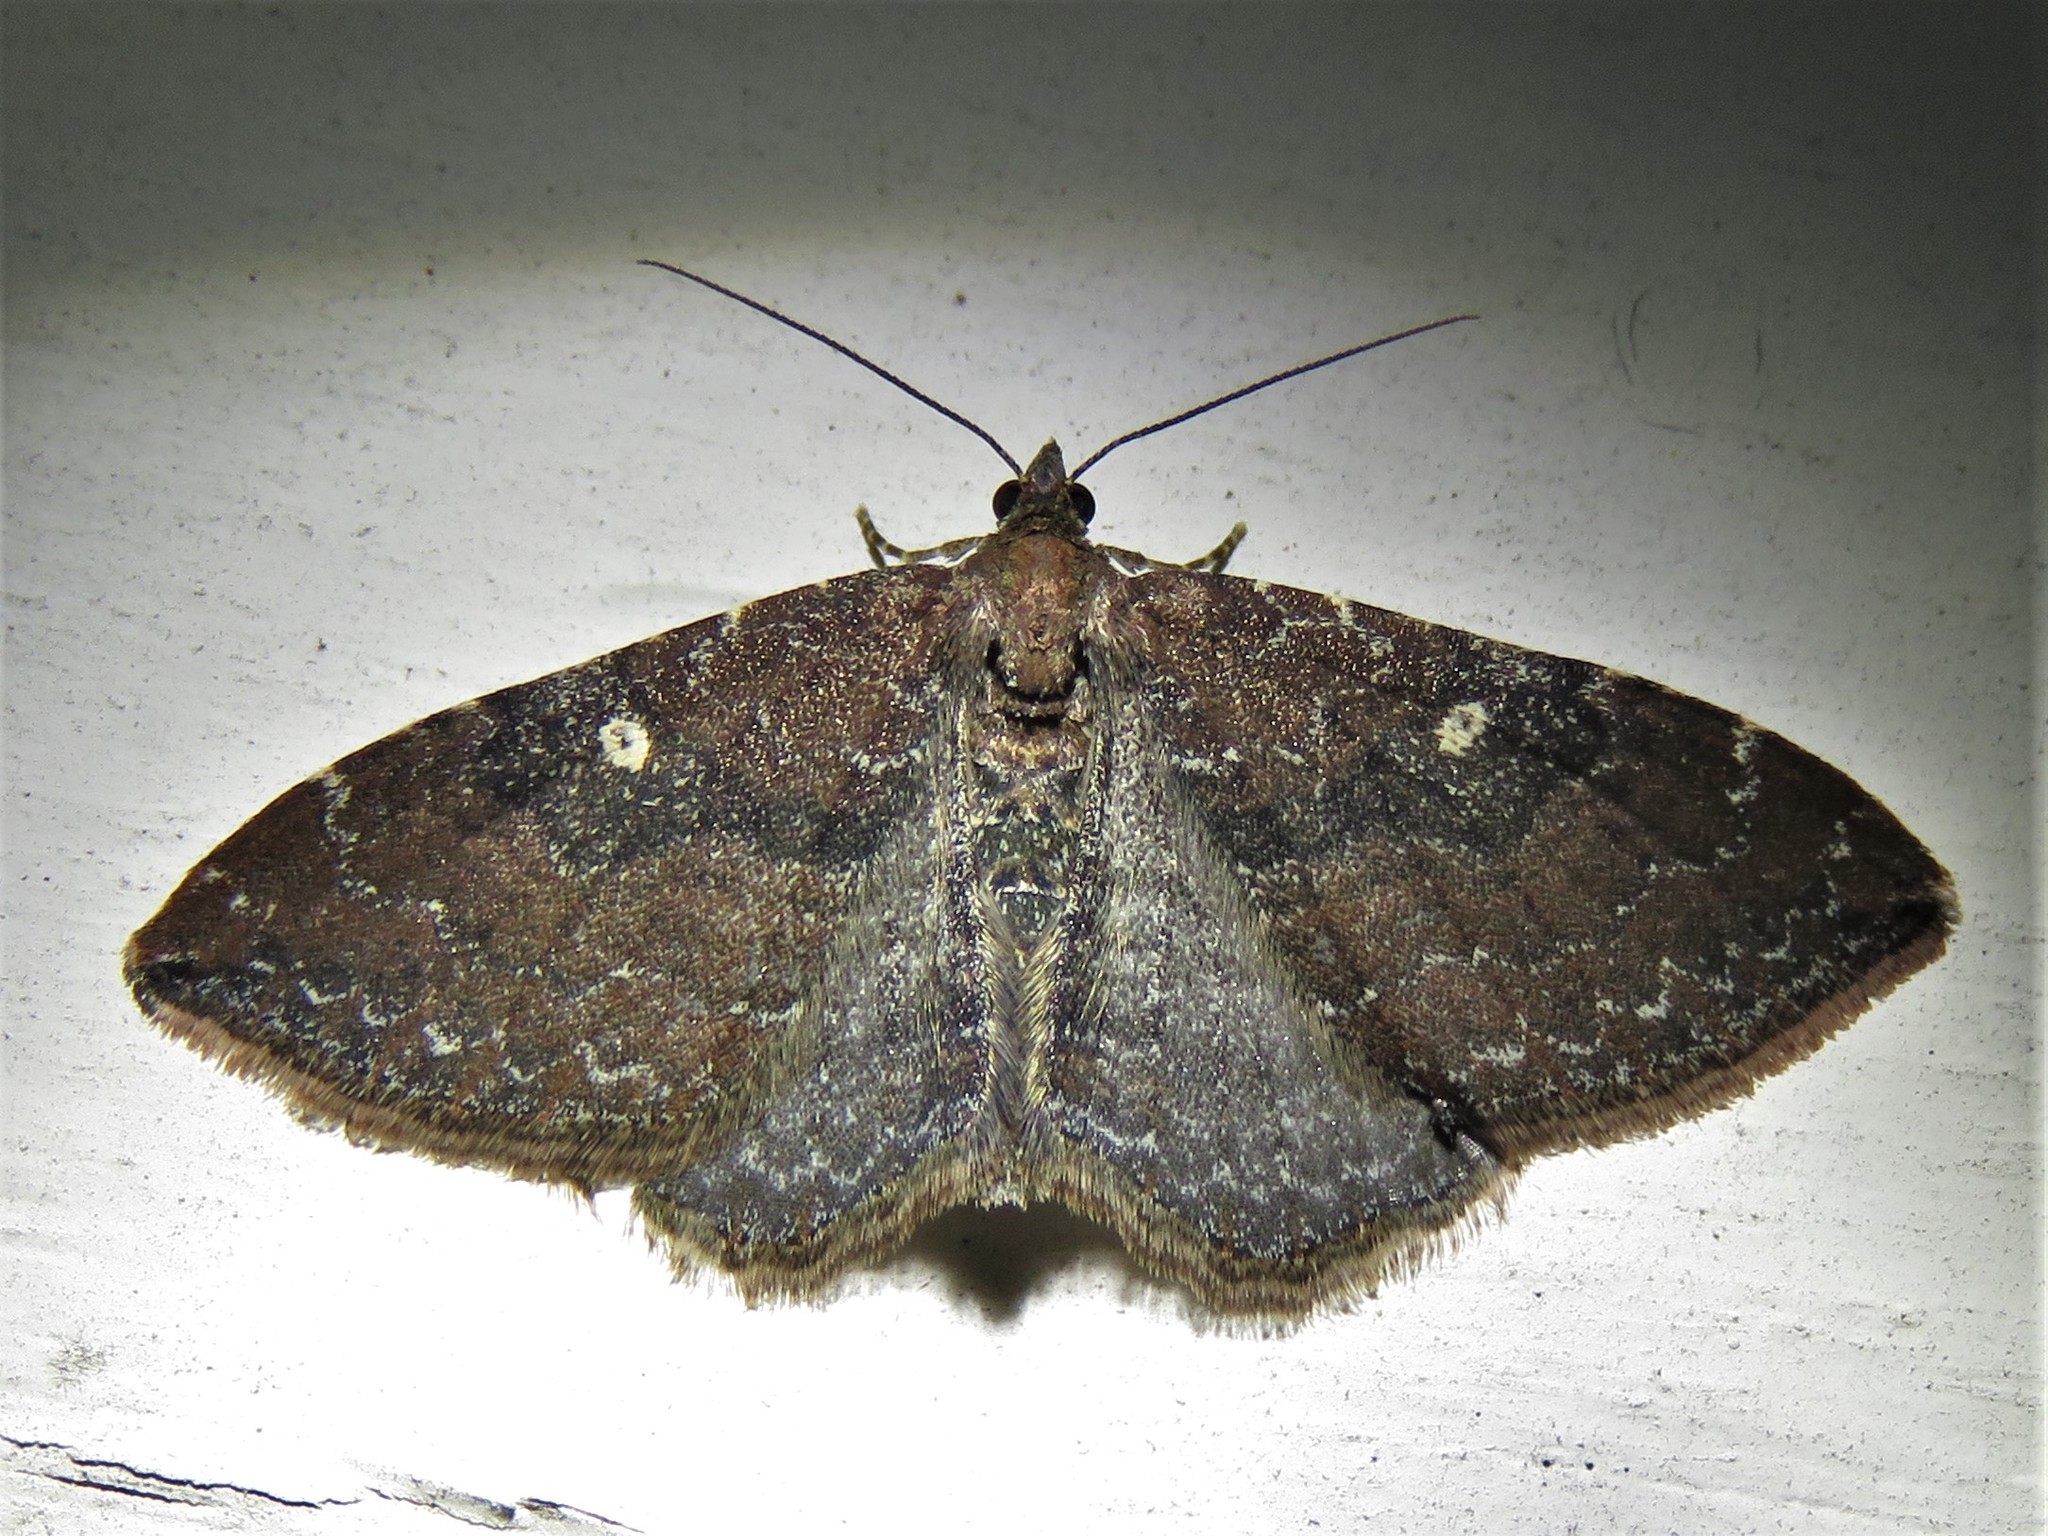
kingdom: Animalia
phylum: Arthropoda
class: Insecta
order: Lepidoptera
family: Geometridae
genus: Orthonama
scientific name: Orthonama obstipata
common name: The gem
